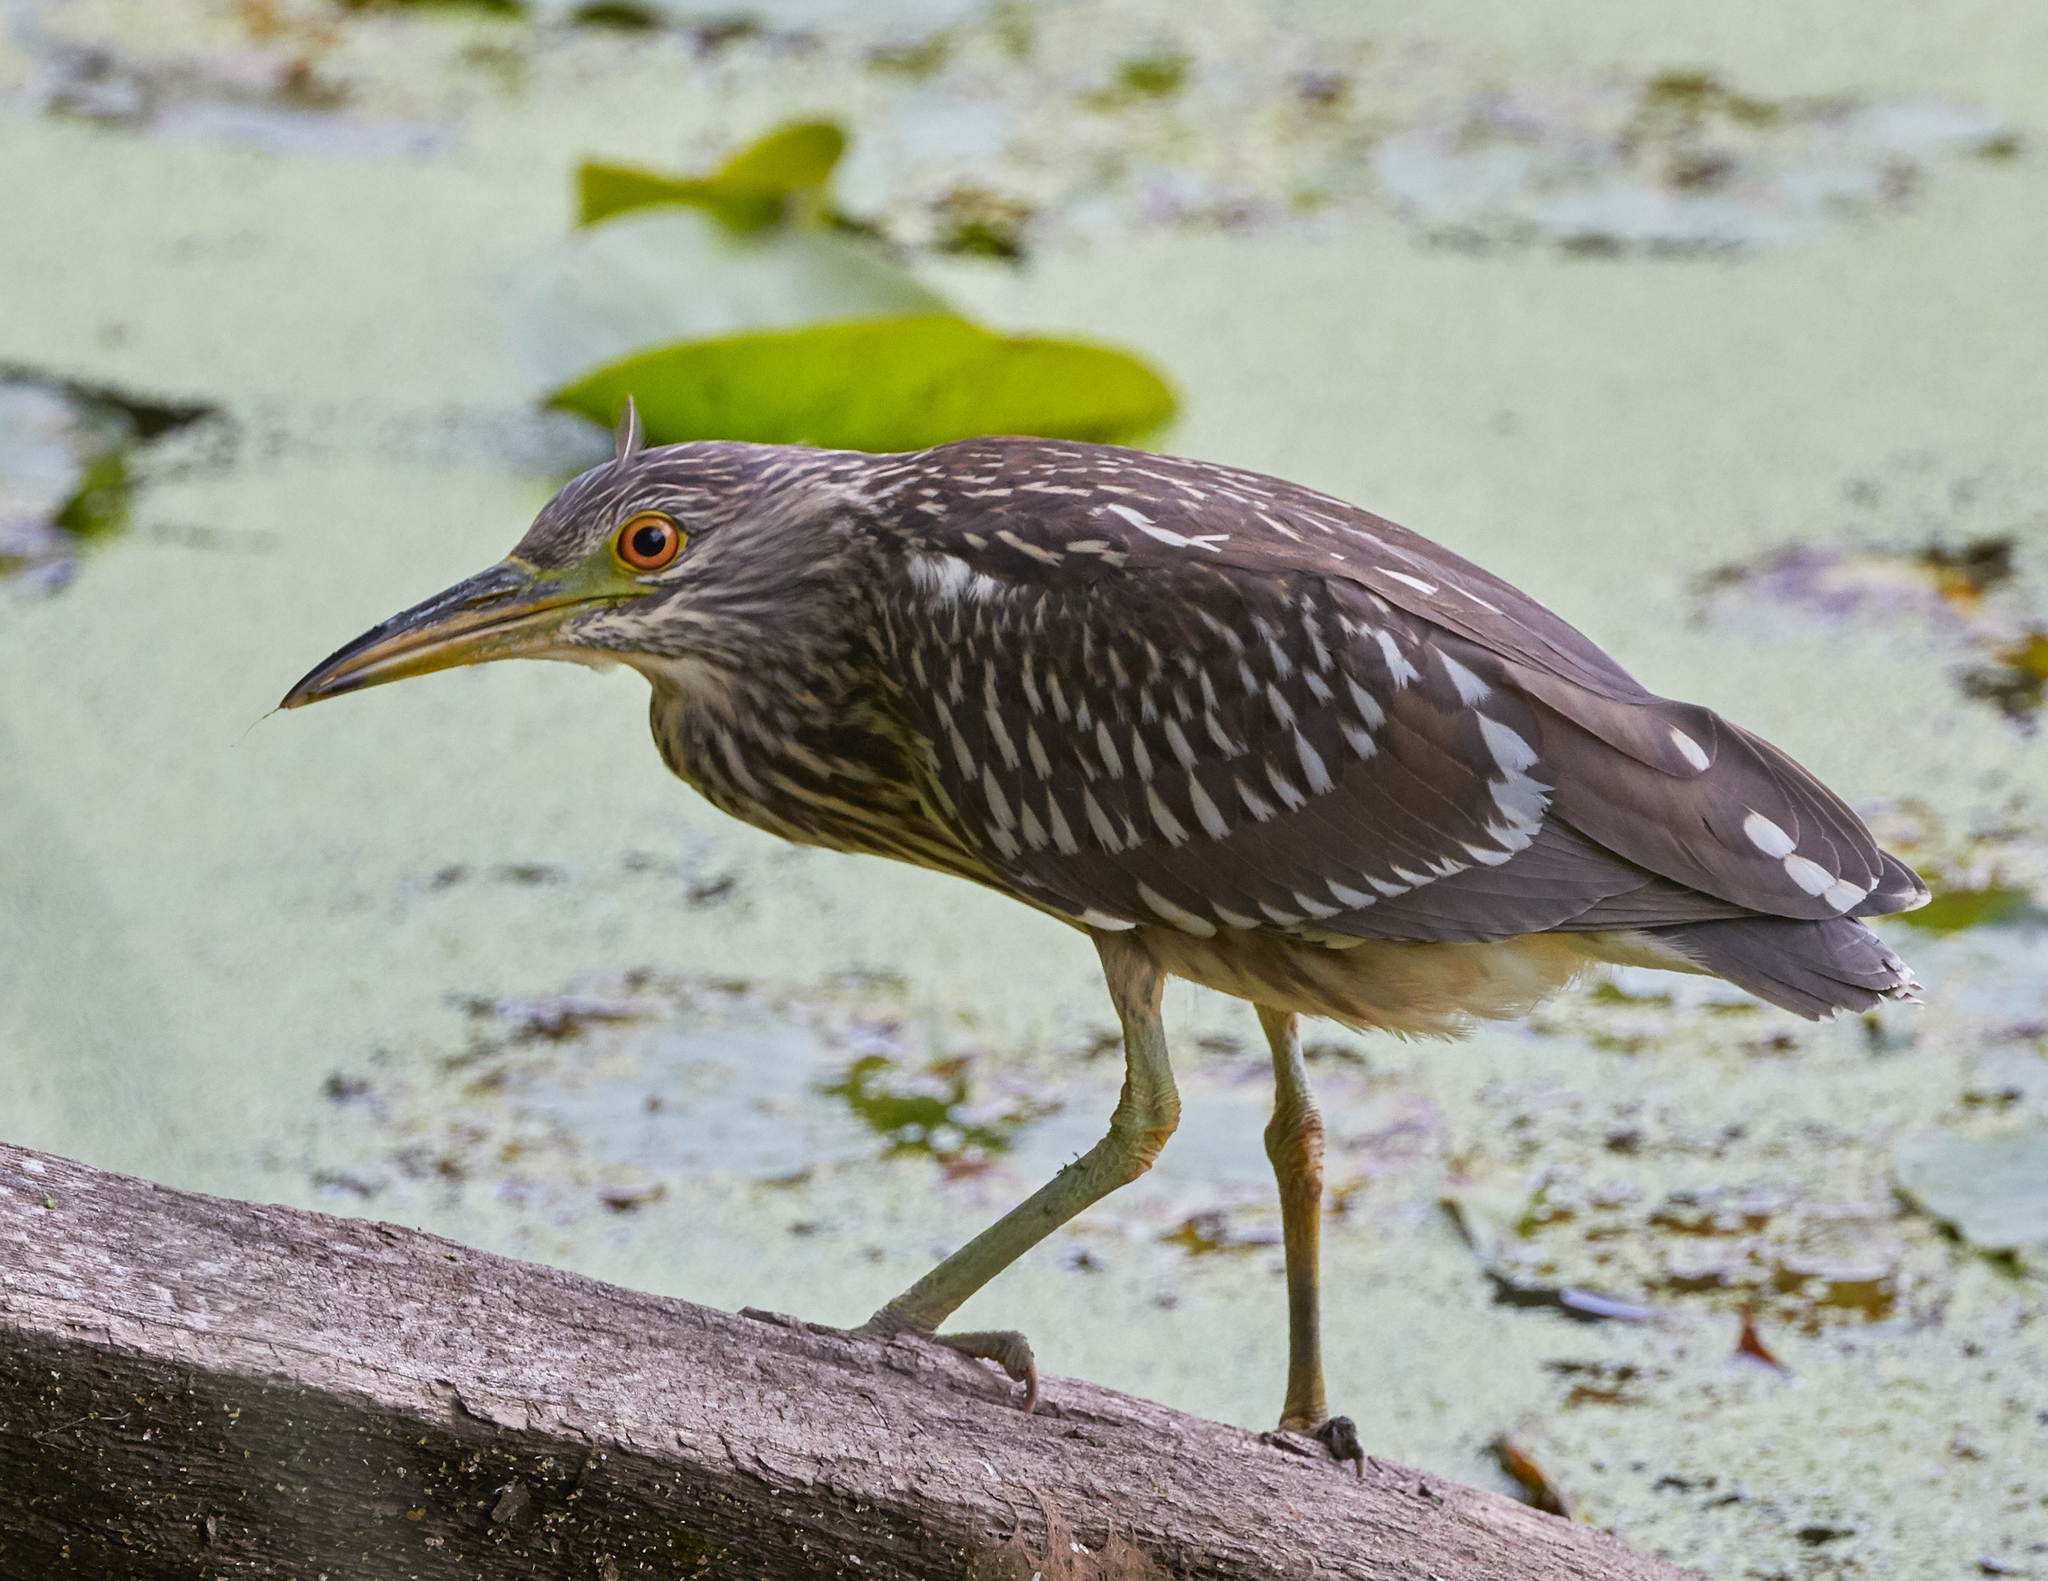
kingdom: Animalia
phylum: Chordata
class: Aves
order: Pelecaniformes
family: Ardeidae
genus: Nycticorax
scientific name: Nycticorax nycticorax
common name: Black-crowned night heron
